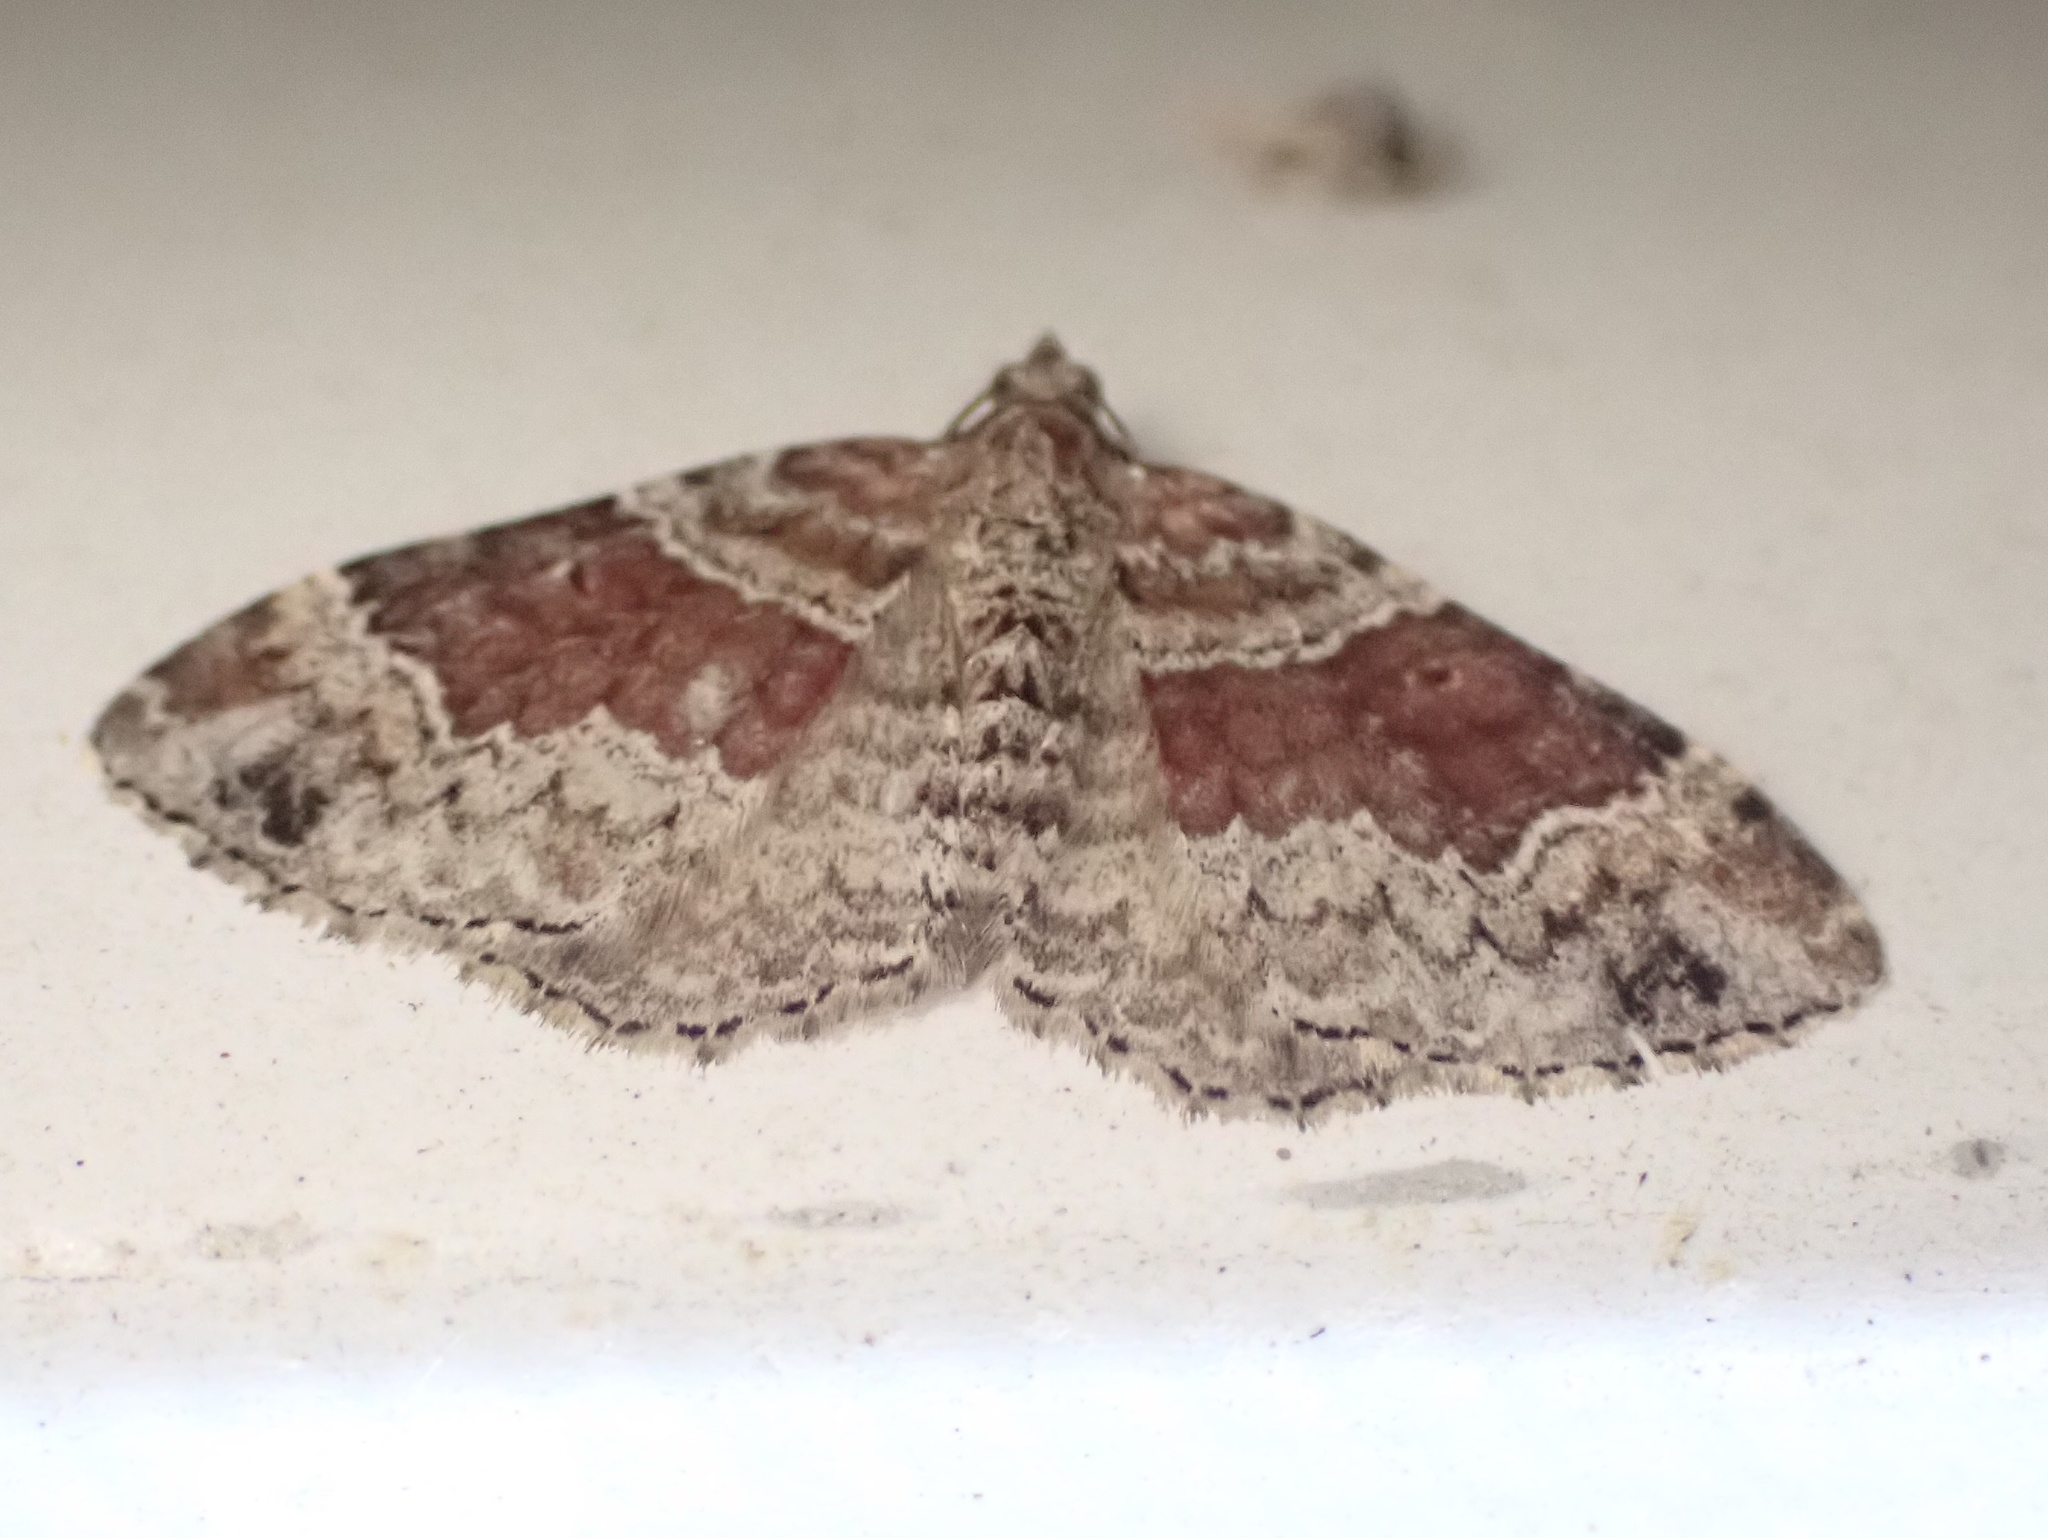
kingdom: Animalia
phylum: Arthropoda
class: Insecta
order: Lepidoptera
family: Geometridae
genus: Xanthorhoe
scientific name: Xanthorhoe ferrugata
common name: Dark-barred twin-spot carpet
